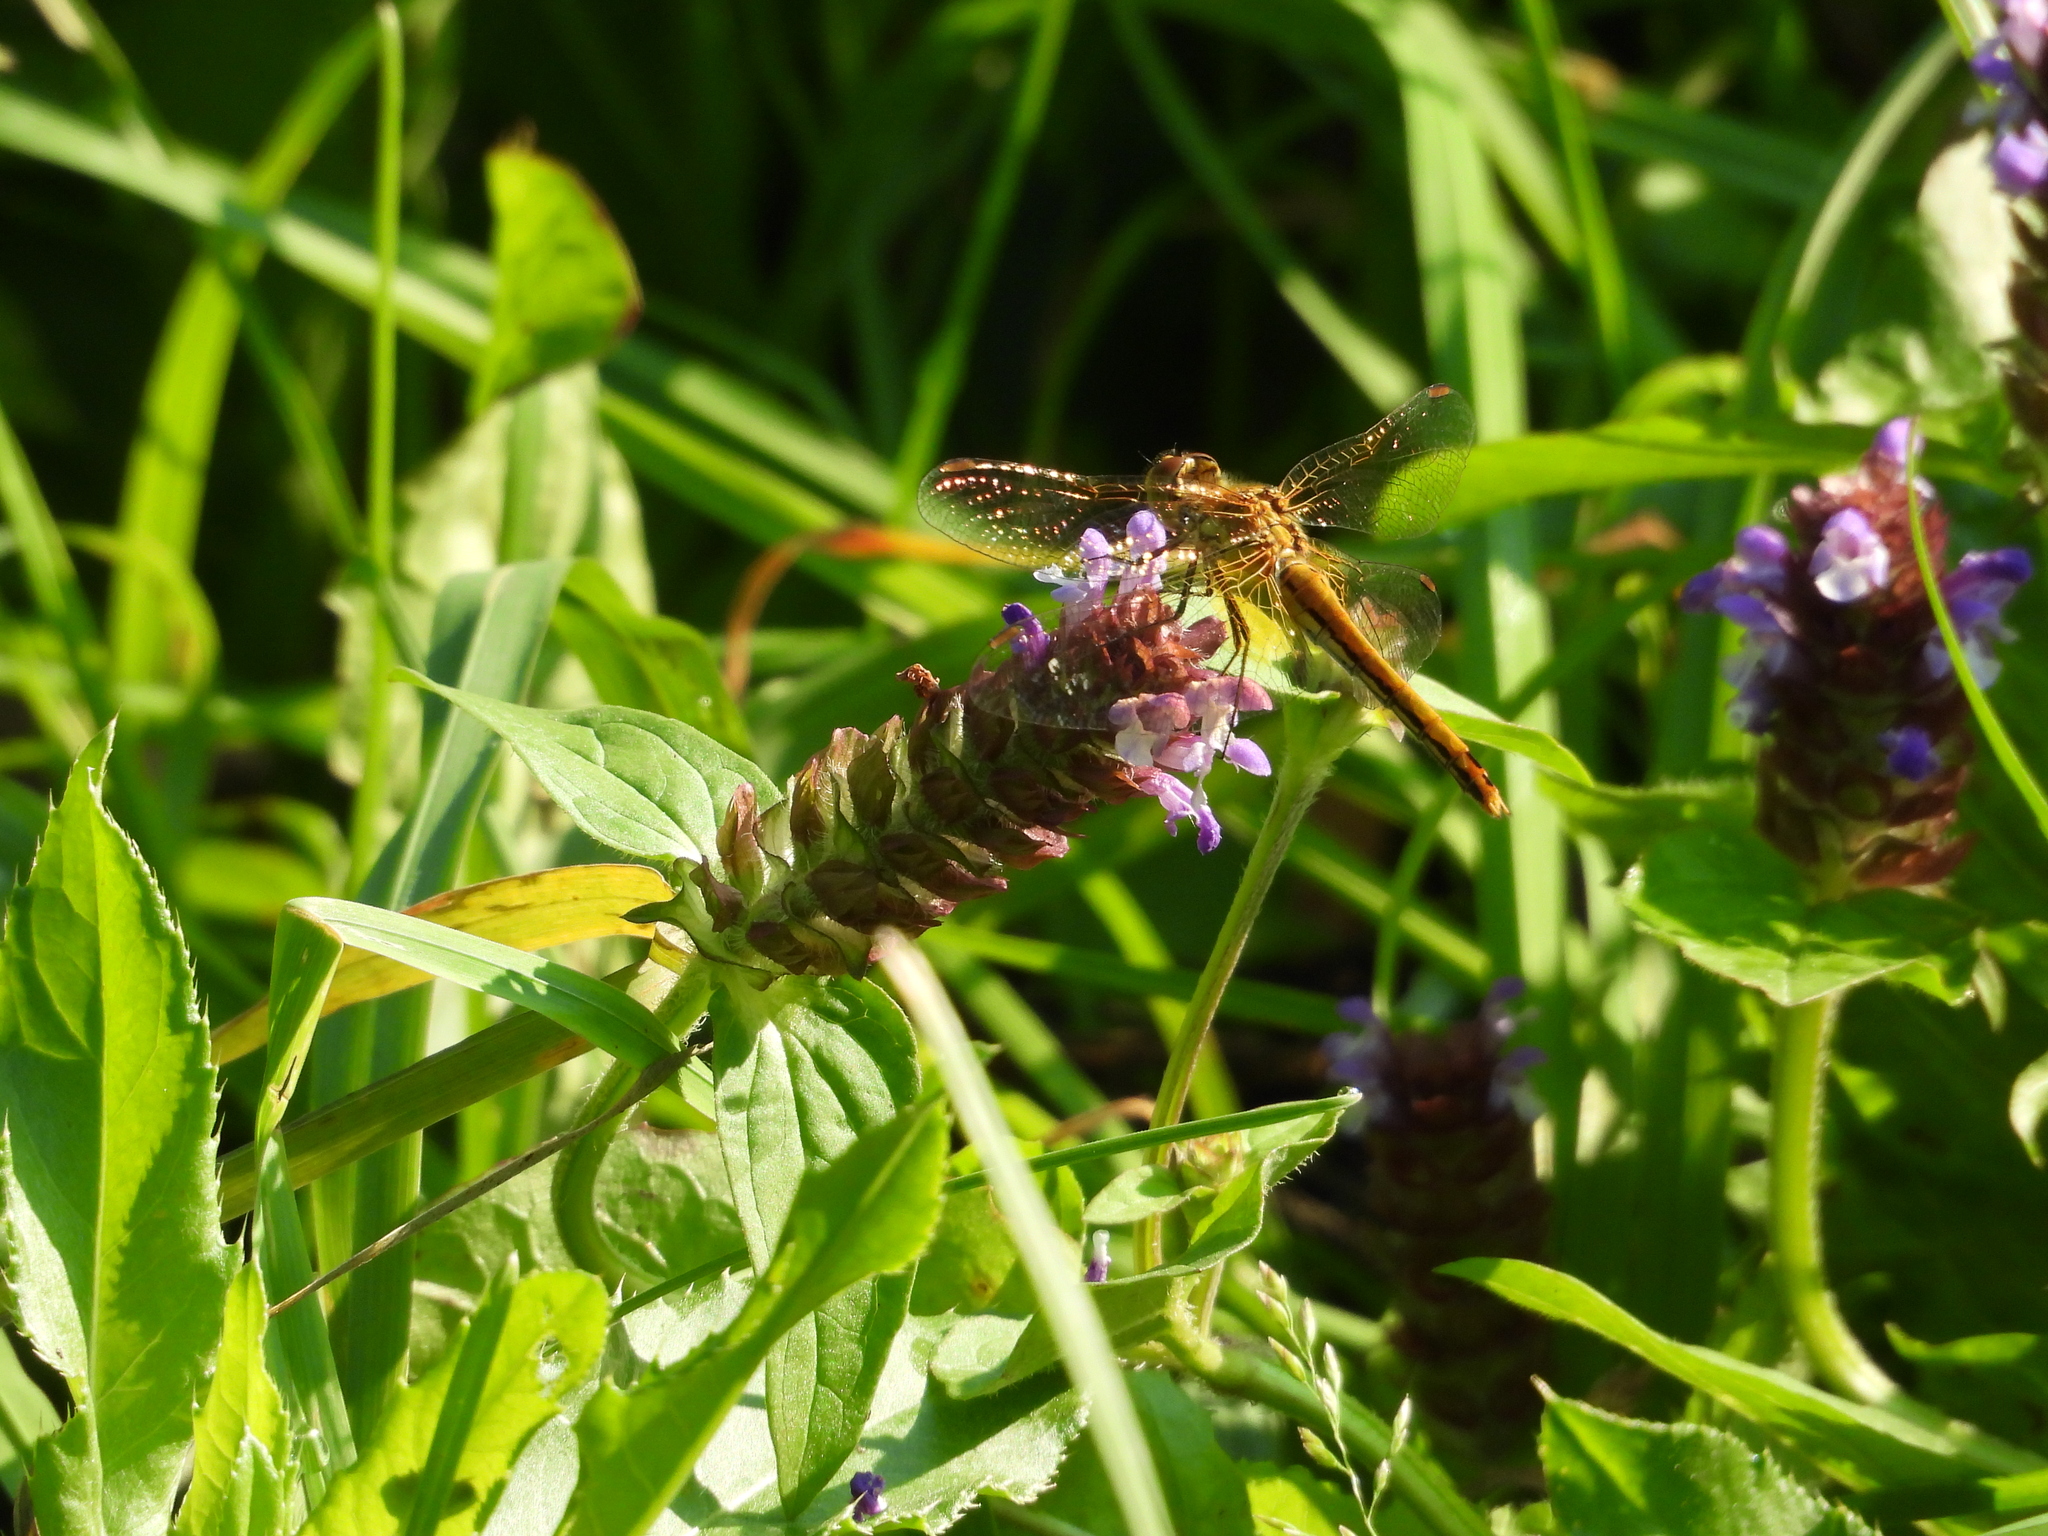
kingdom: Animalia
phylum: Arthropoda
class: Insecta
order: Odonata
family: Libellulidae
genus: Sympetrum
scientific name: Sympetrum flaveolum
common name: Yellow-winged darter
